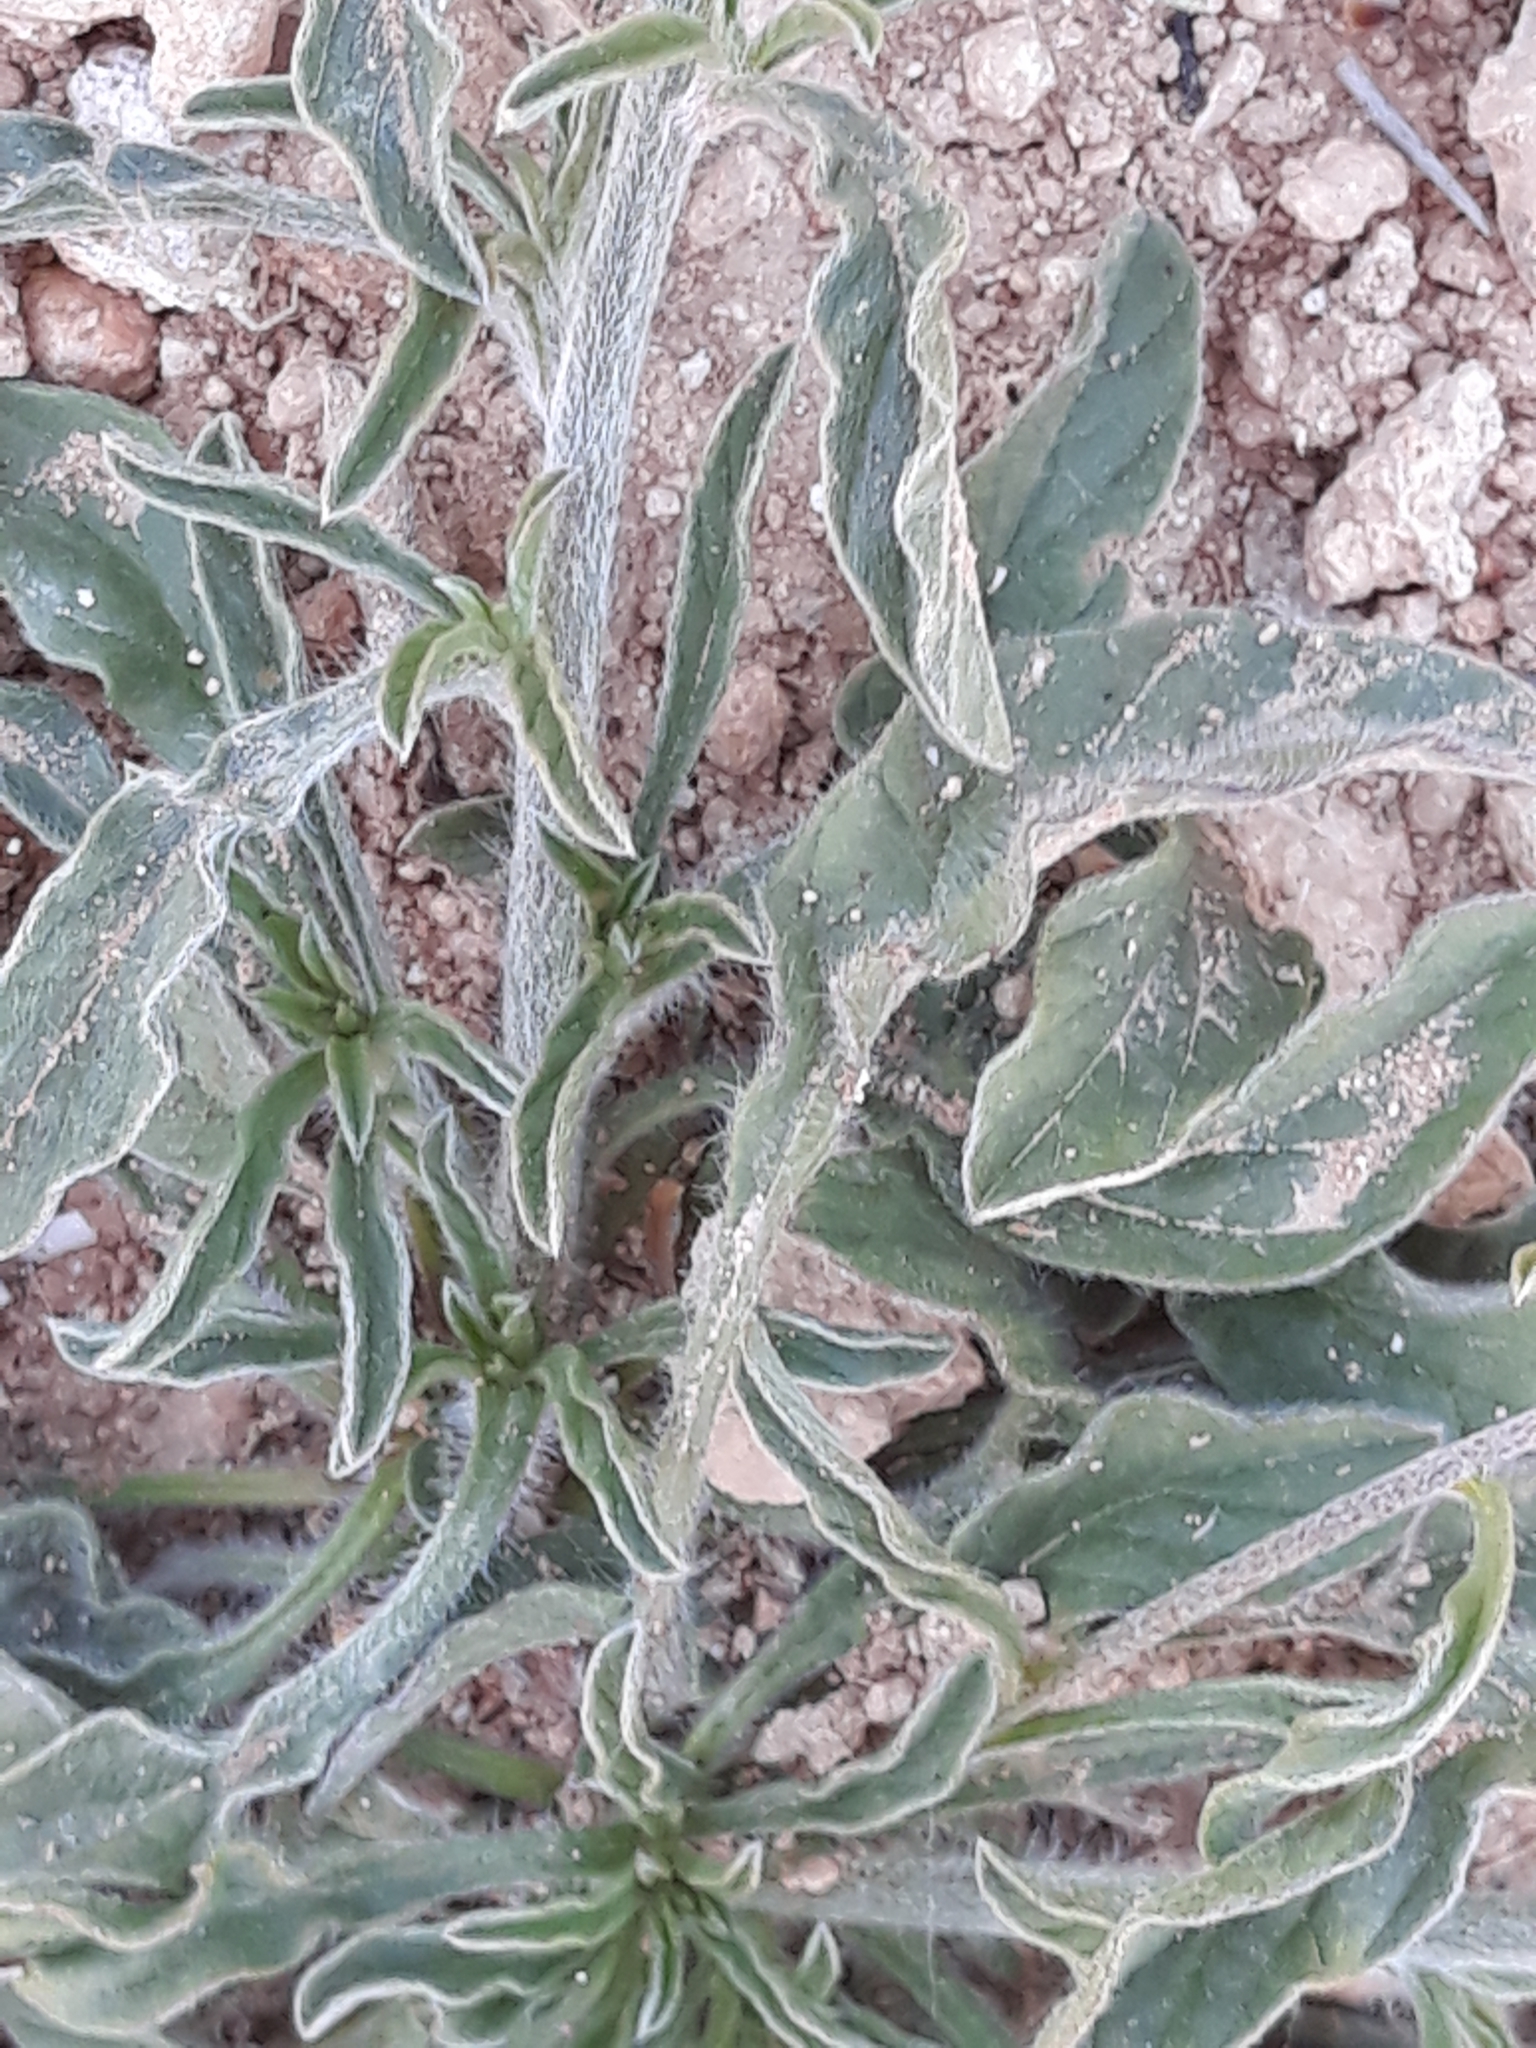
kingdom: Plantae
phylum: Tracheophyta
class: Magnoliopsida
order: Solanales
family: Convolvulaceae
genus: Convolvulus
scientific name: Convolvulus cantabrica
